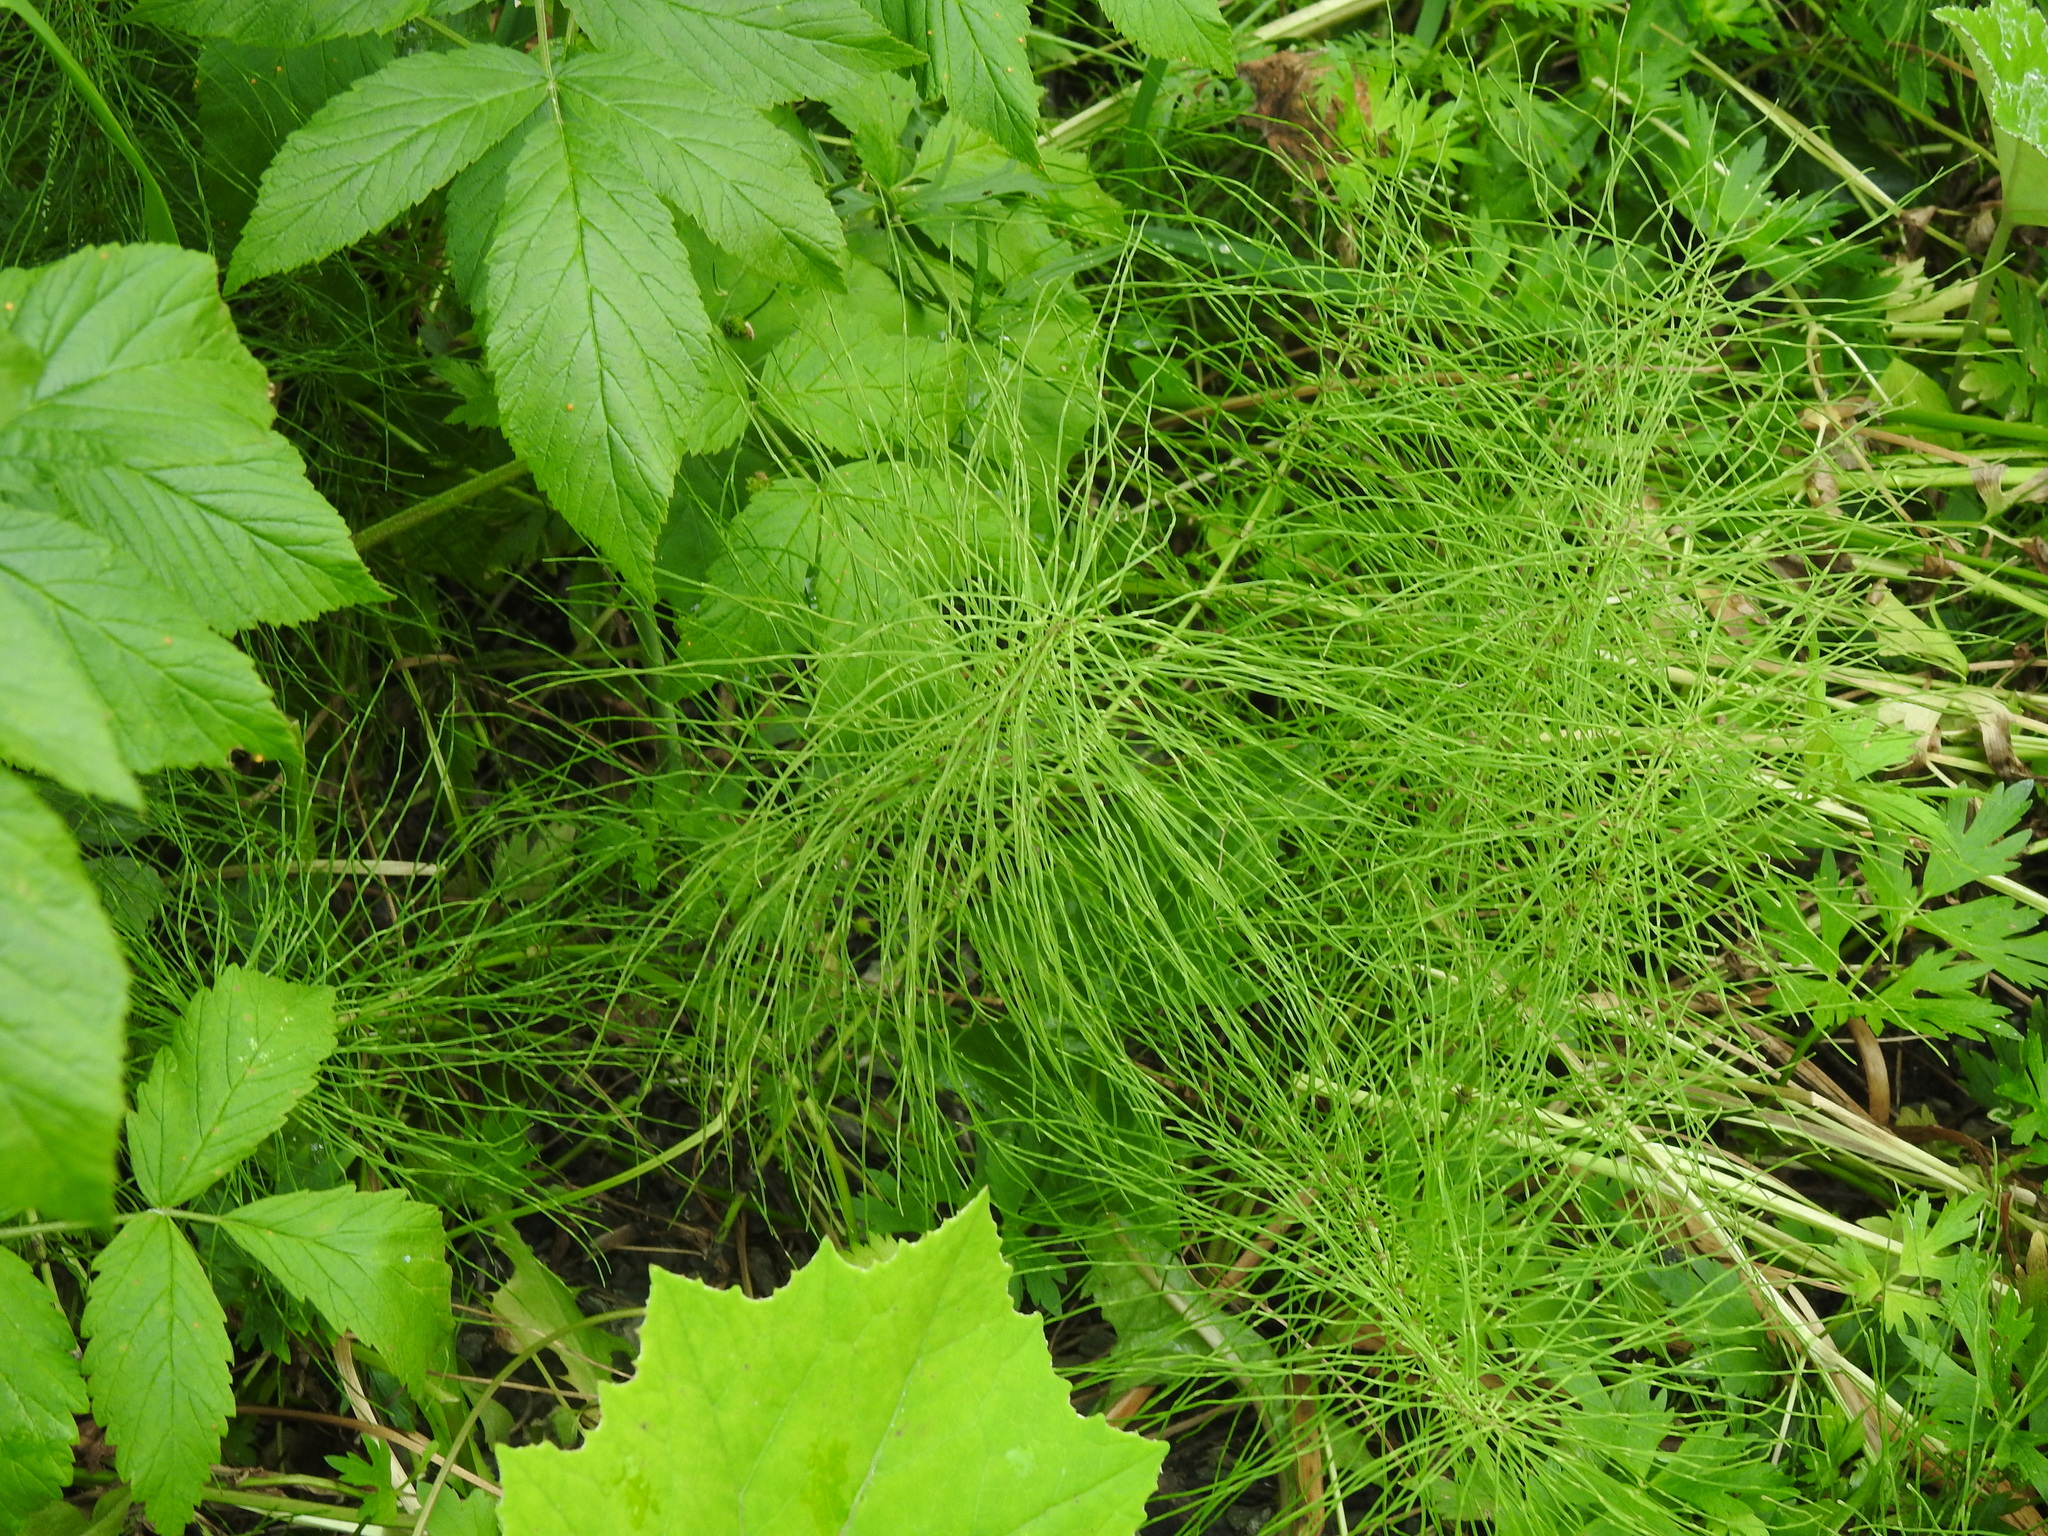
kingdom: Plantae
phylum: Tracheophyta
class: Polypodiopsida
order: Equisetales
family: Equisetaceae
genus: Equisetum
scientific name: Equisetum pratense
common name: Meadow horsetail
